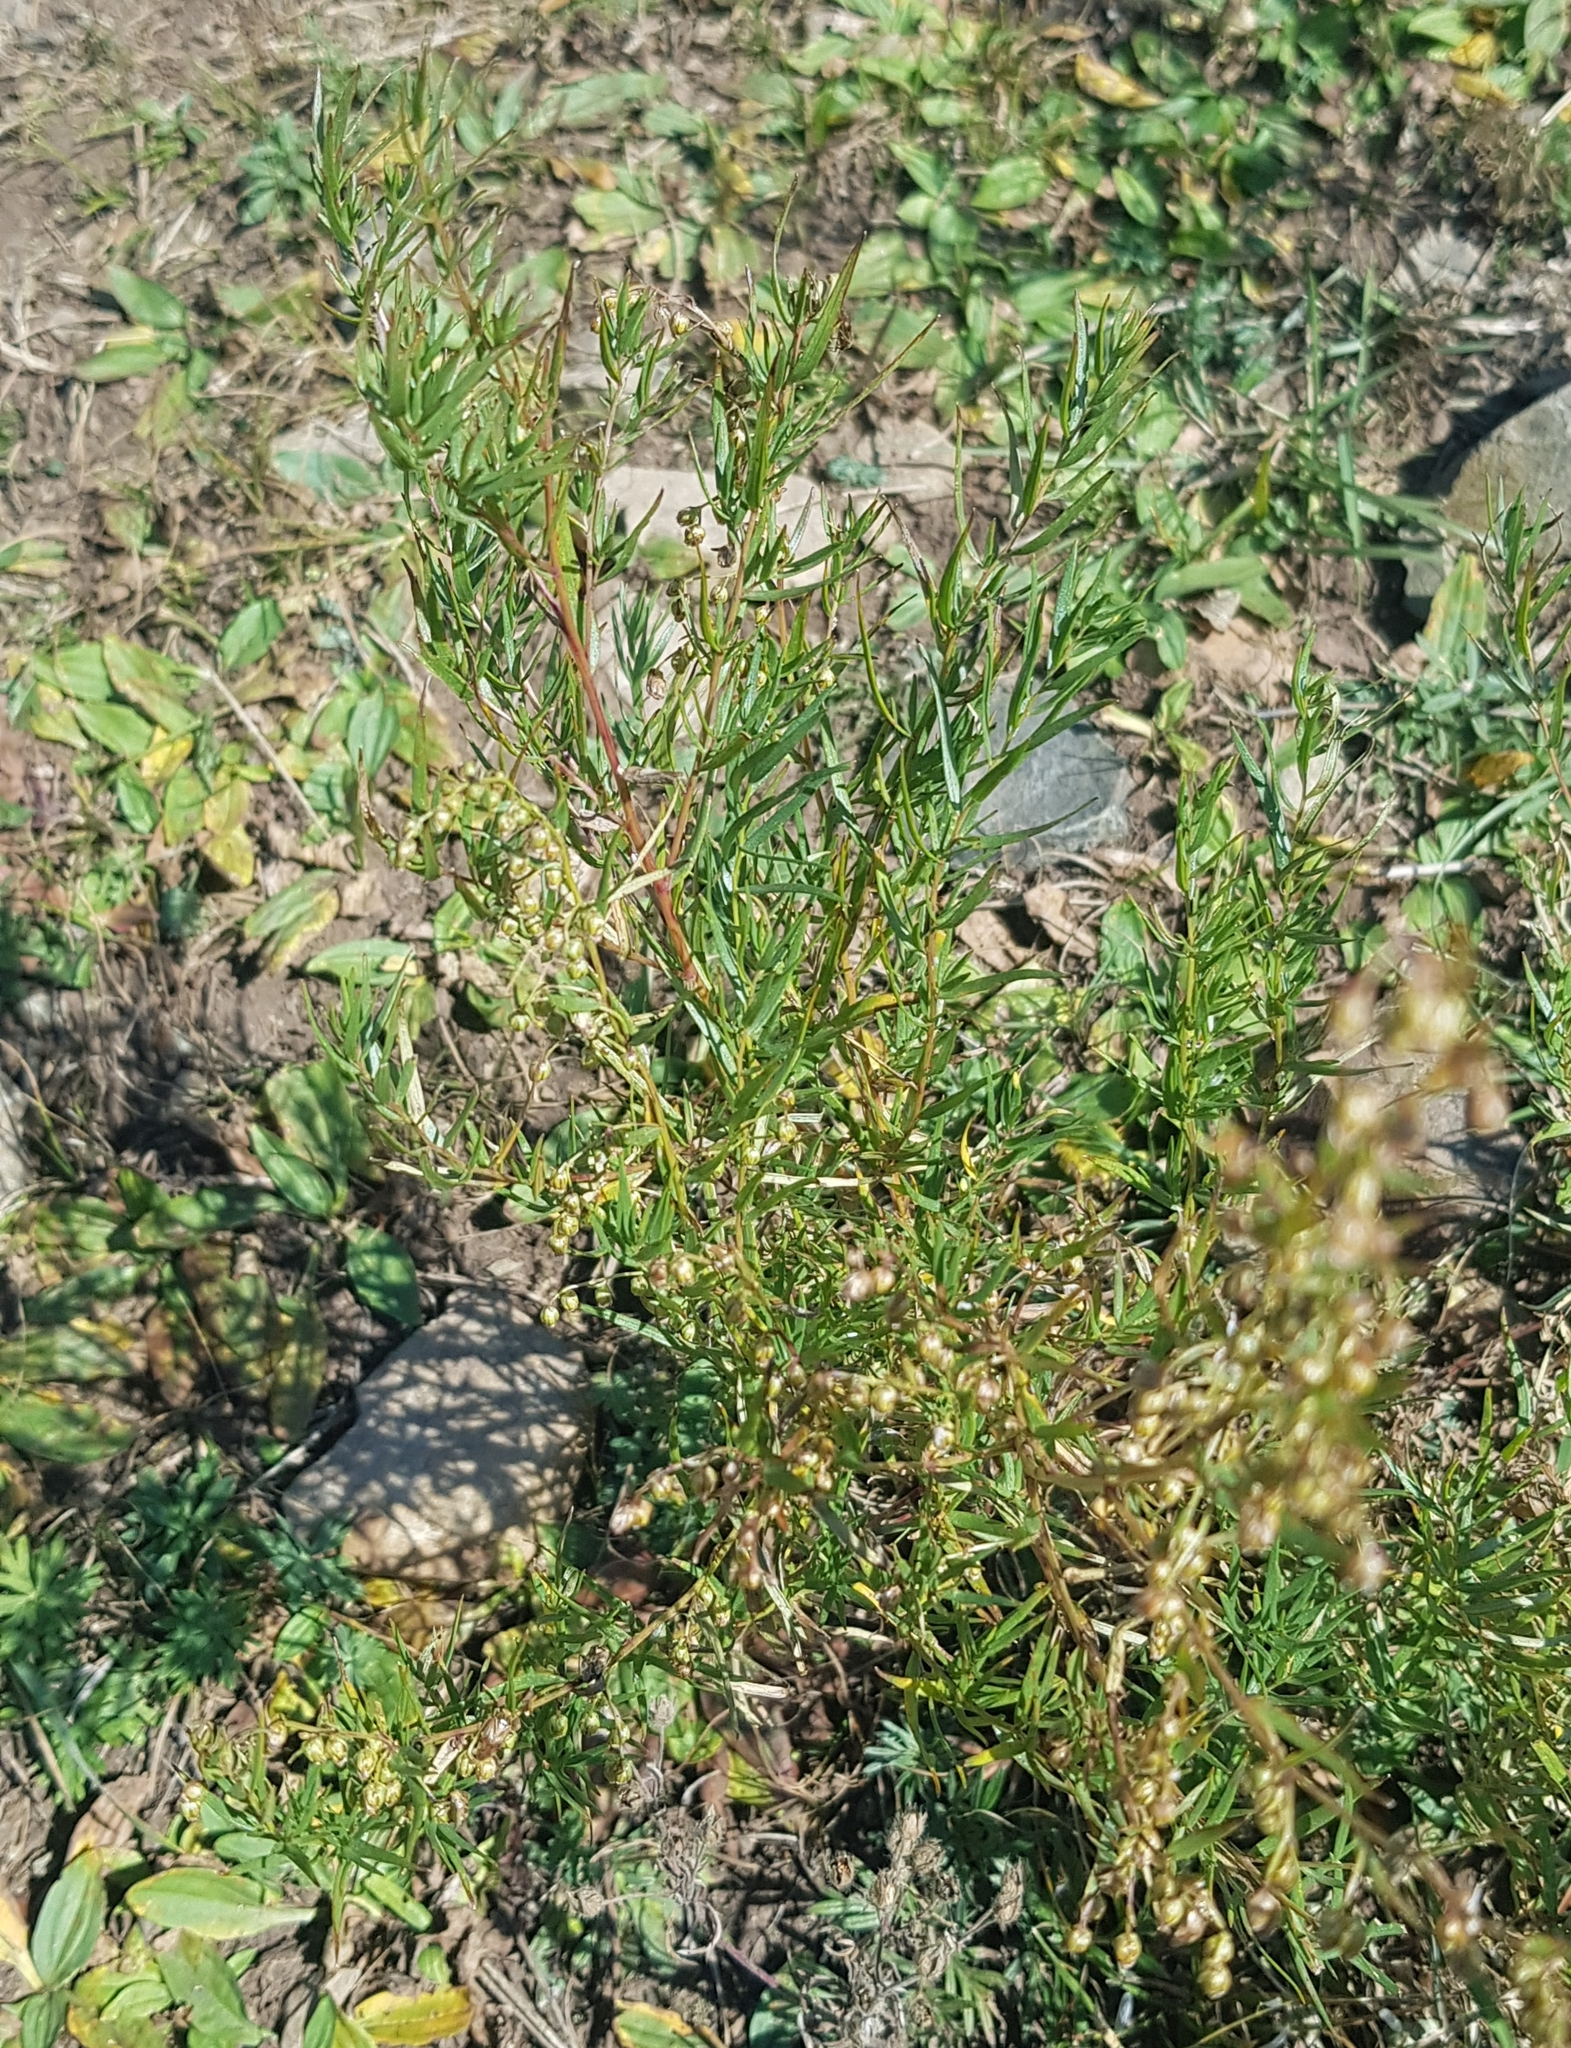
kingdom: Plantae
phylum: Tracheophyta
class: Magnoliopsida
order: Asterales
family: Asteraceae
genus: Artemisia
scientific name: Artemisia dracunculus
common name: Tarragon
